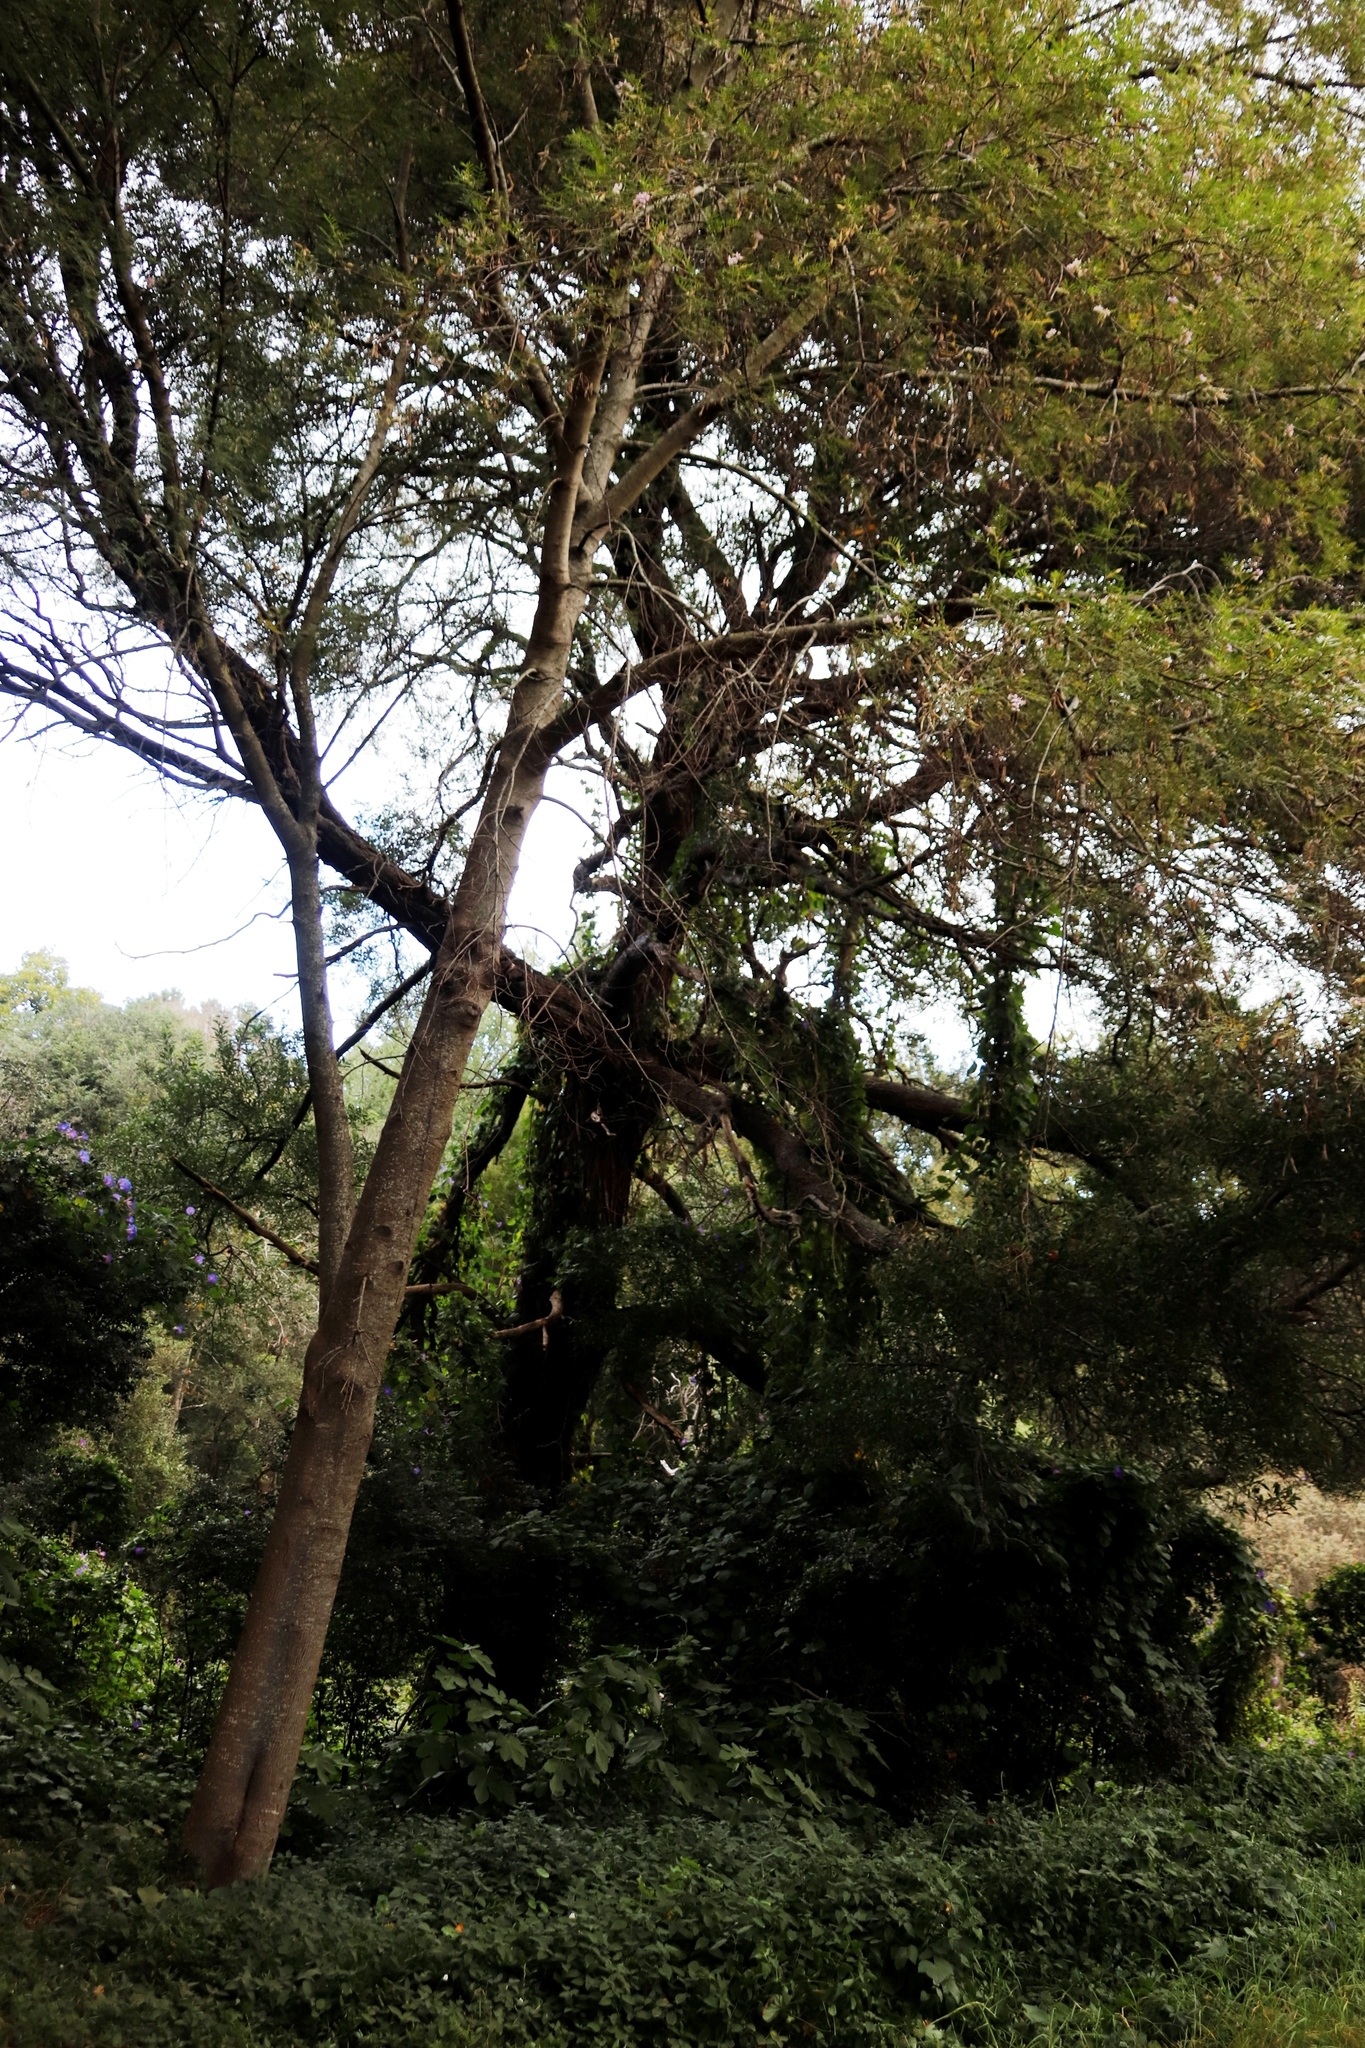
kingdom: Plantae
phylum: Tracheophyta
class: Magnoliopsida
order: Fabales
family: Fabaceae
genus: Acacia
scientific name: Acacia melanoxylon
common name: Blackwood
